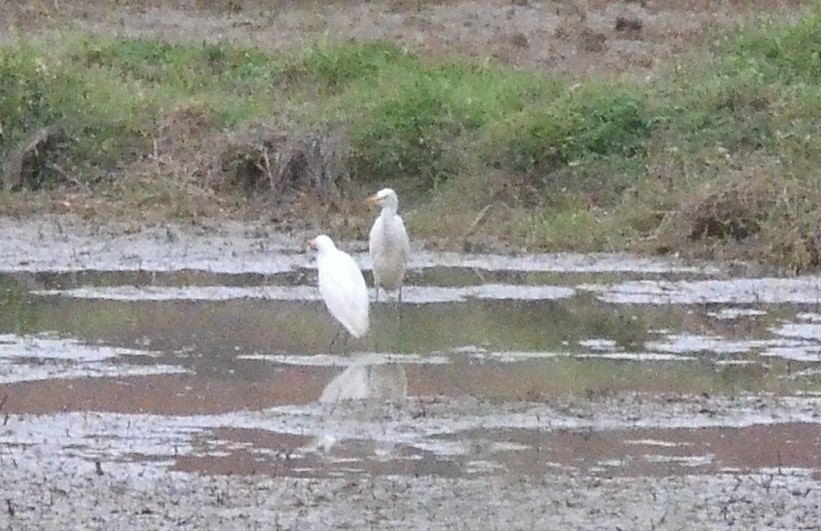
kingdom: Animalia
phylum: Chordata
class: Aves
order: Pelecaniformes
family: Ardeidae
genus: Bubulcus
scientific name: Bubulcus coromandus
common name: Eastern cattle egret
